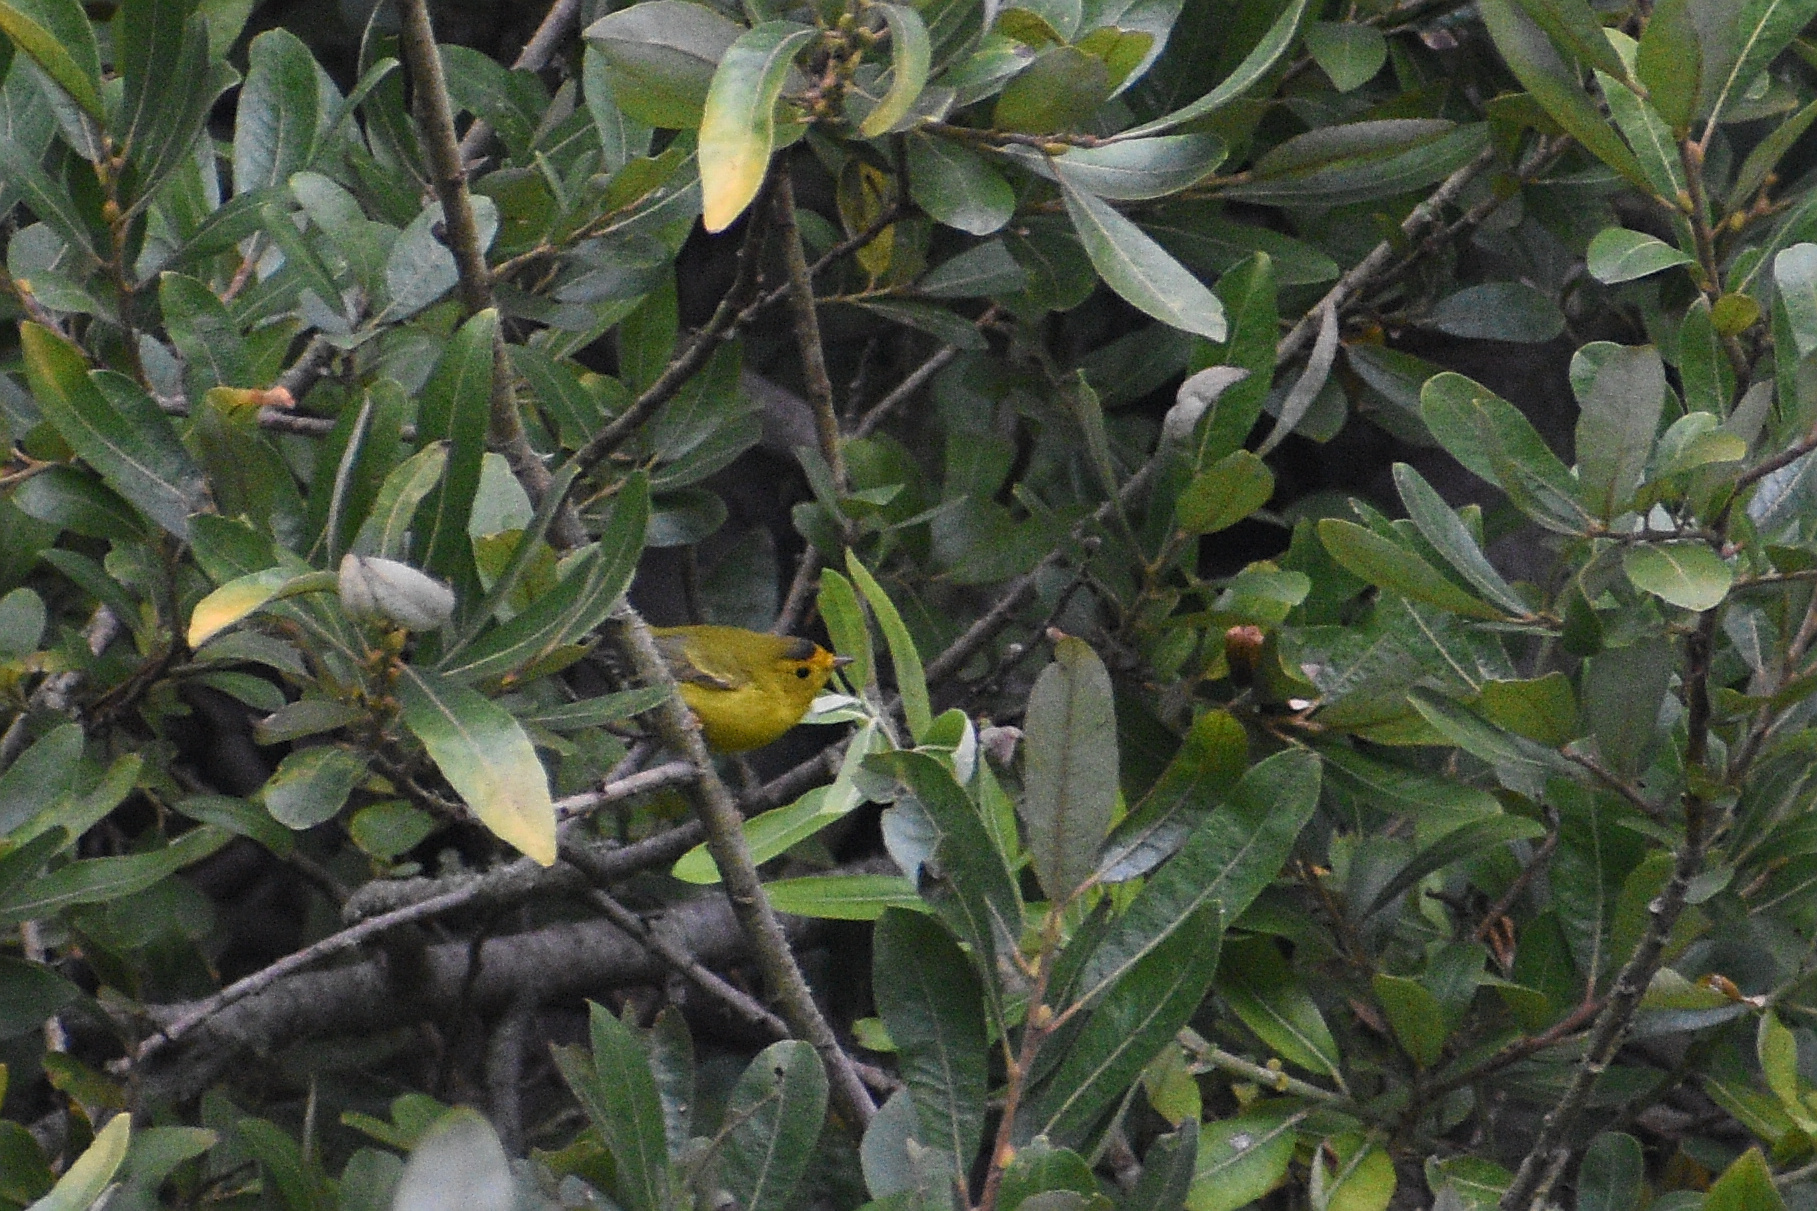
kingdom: Animalia
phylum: Chordata
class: Aves
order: Passeriformes
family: Parulidae
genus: Cardellina
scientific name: Cardellina pusilla
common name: Wilson's warbler
